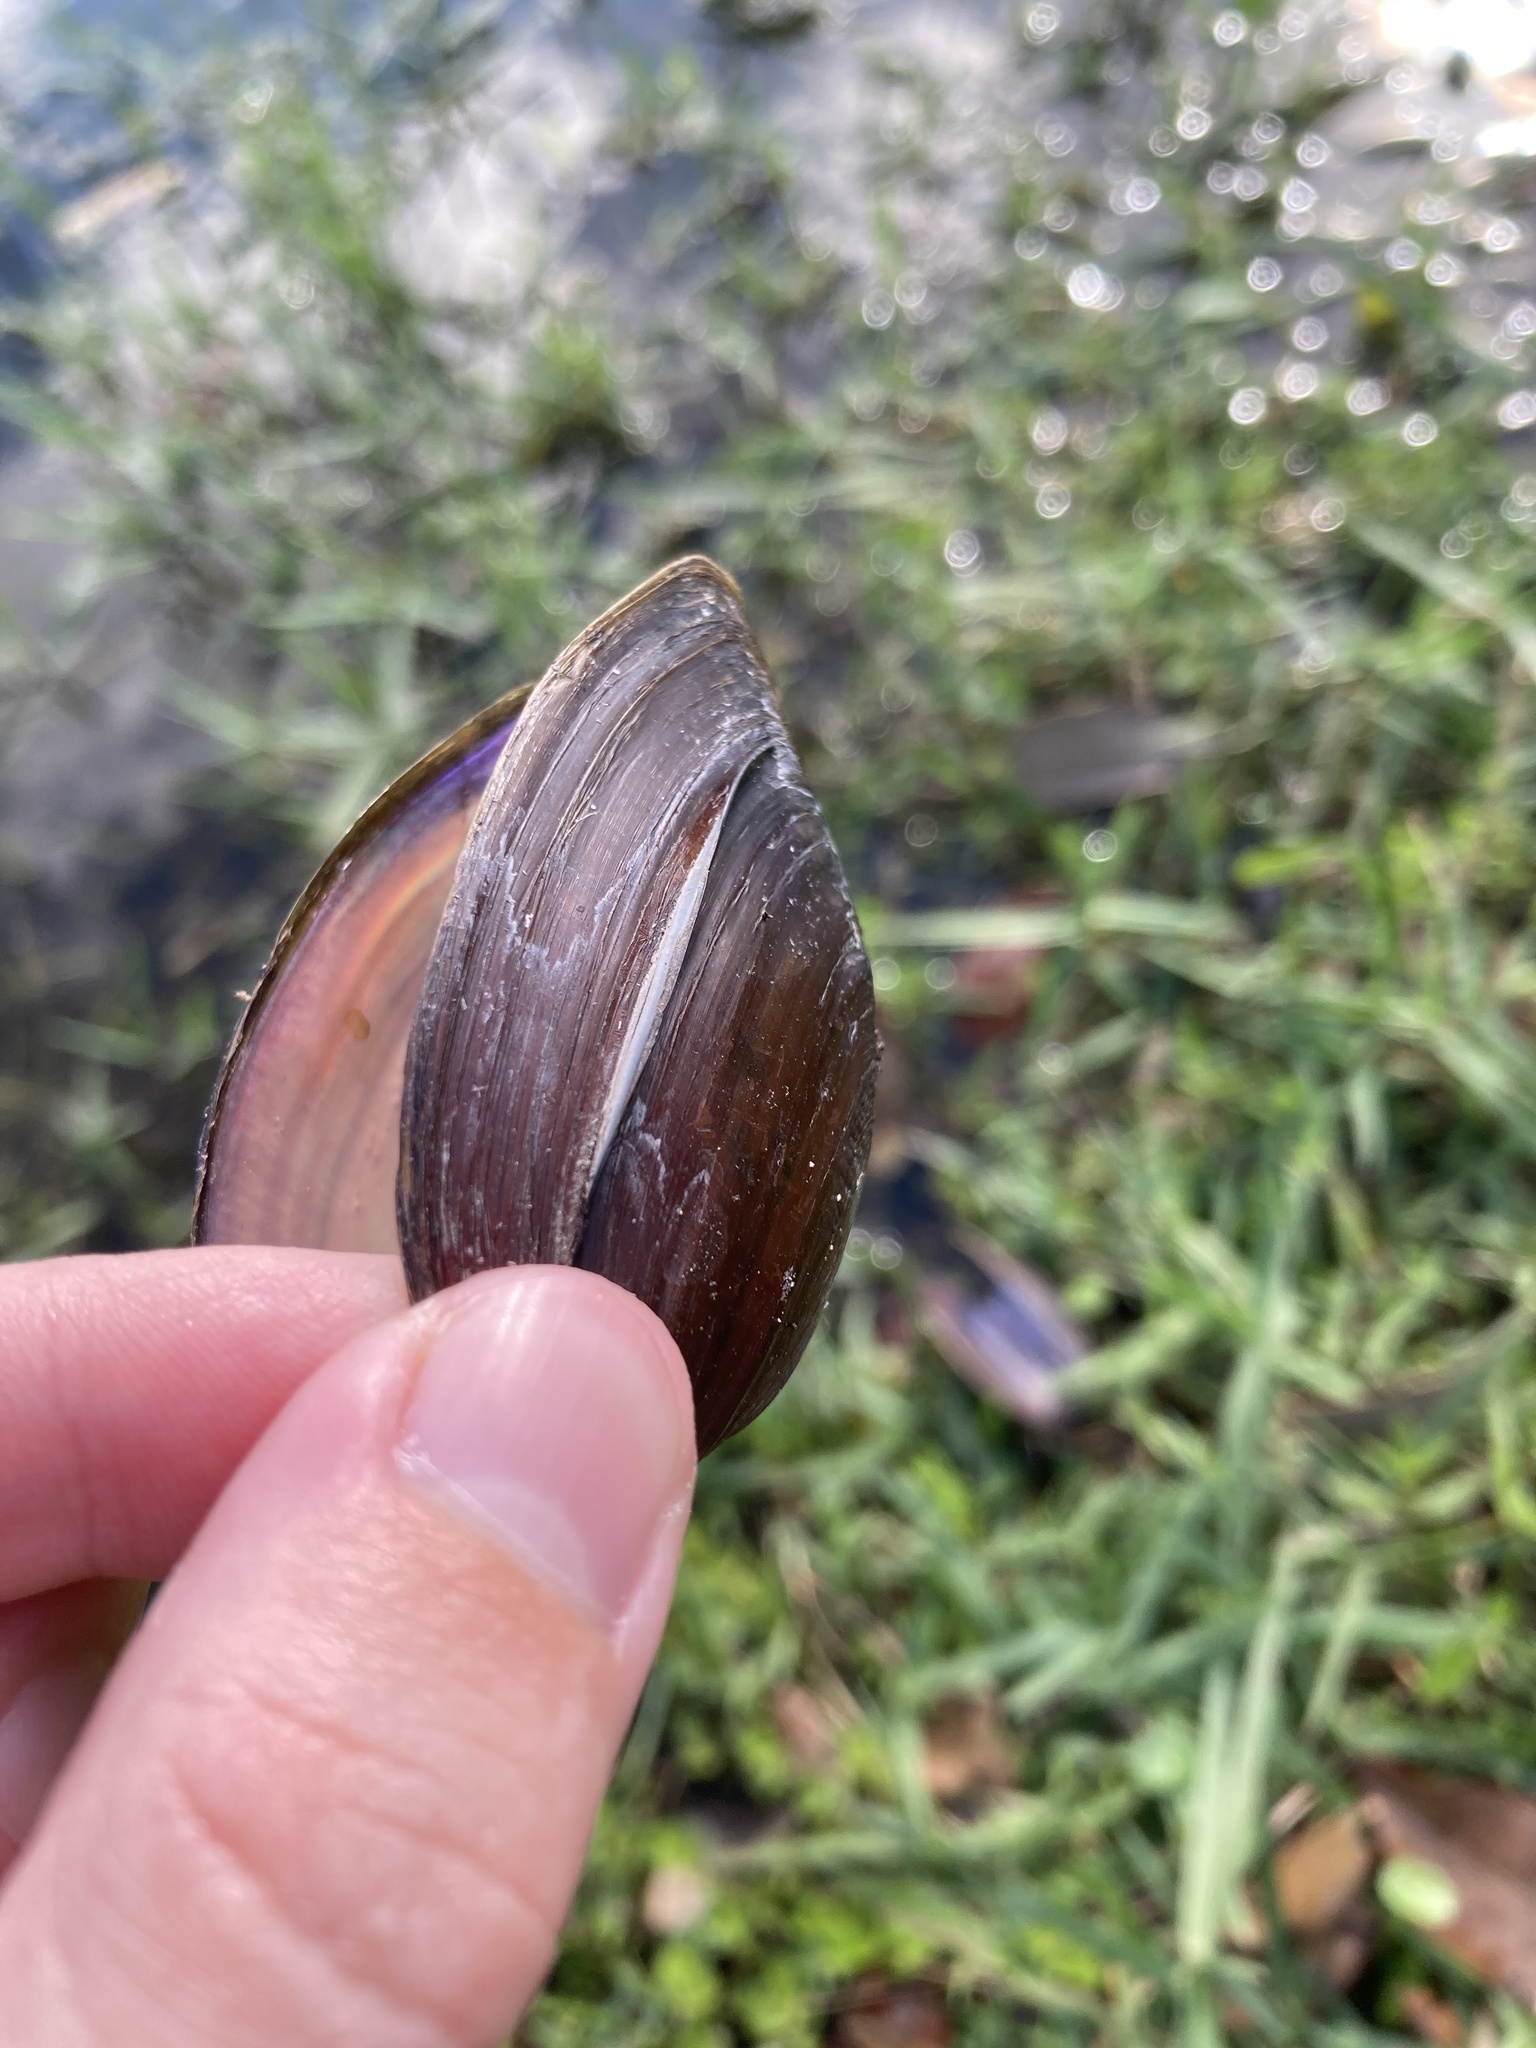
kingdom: Animalia
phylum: Mollusca
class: Bivalvia
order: Unionida
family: Unionidae
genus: Elliptio
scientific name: Elliptio jayensis
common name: Florida spike
